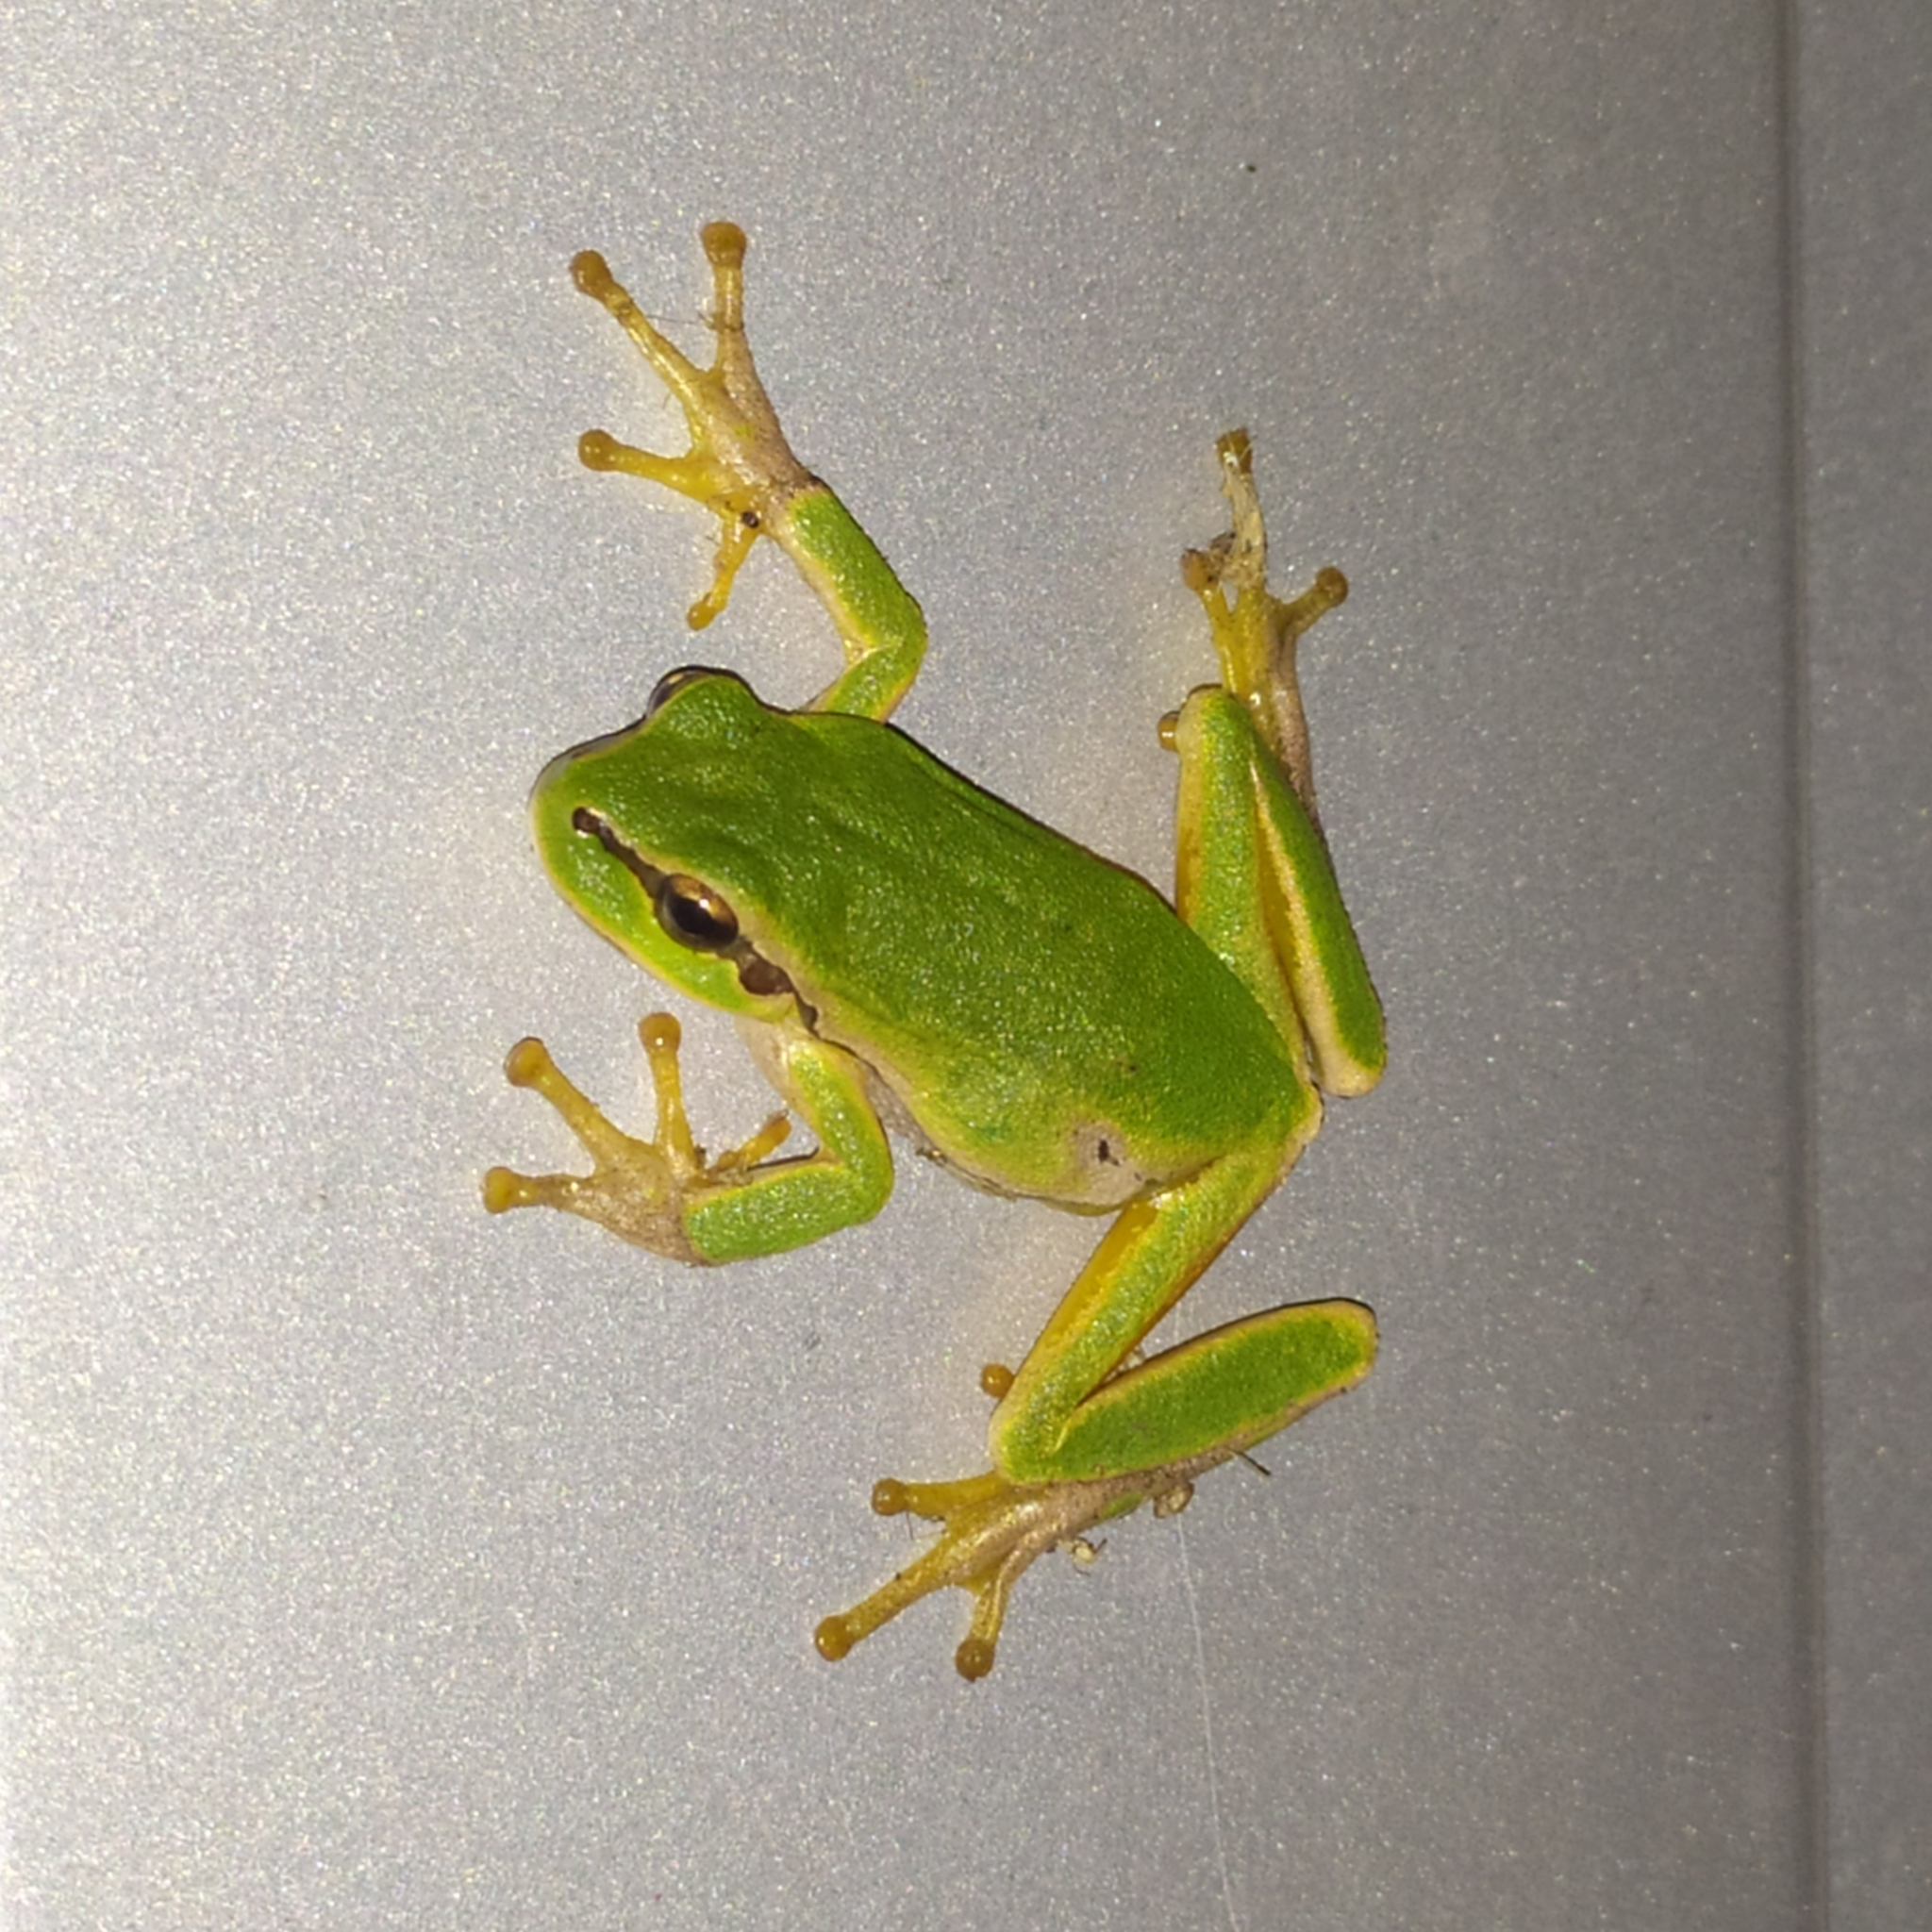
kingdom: Animalia
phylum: Chordata
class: Amphibia
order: Anura
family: Hylidae
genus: Hyla
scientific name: Hyla orientalis
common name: Caucasian treefrog
